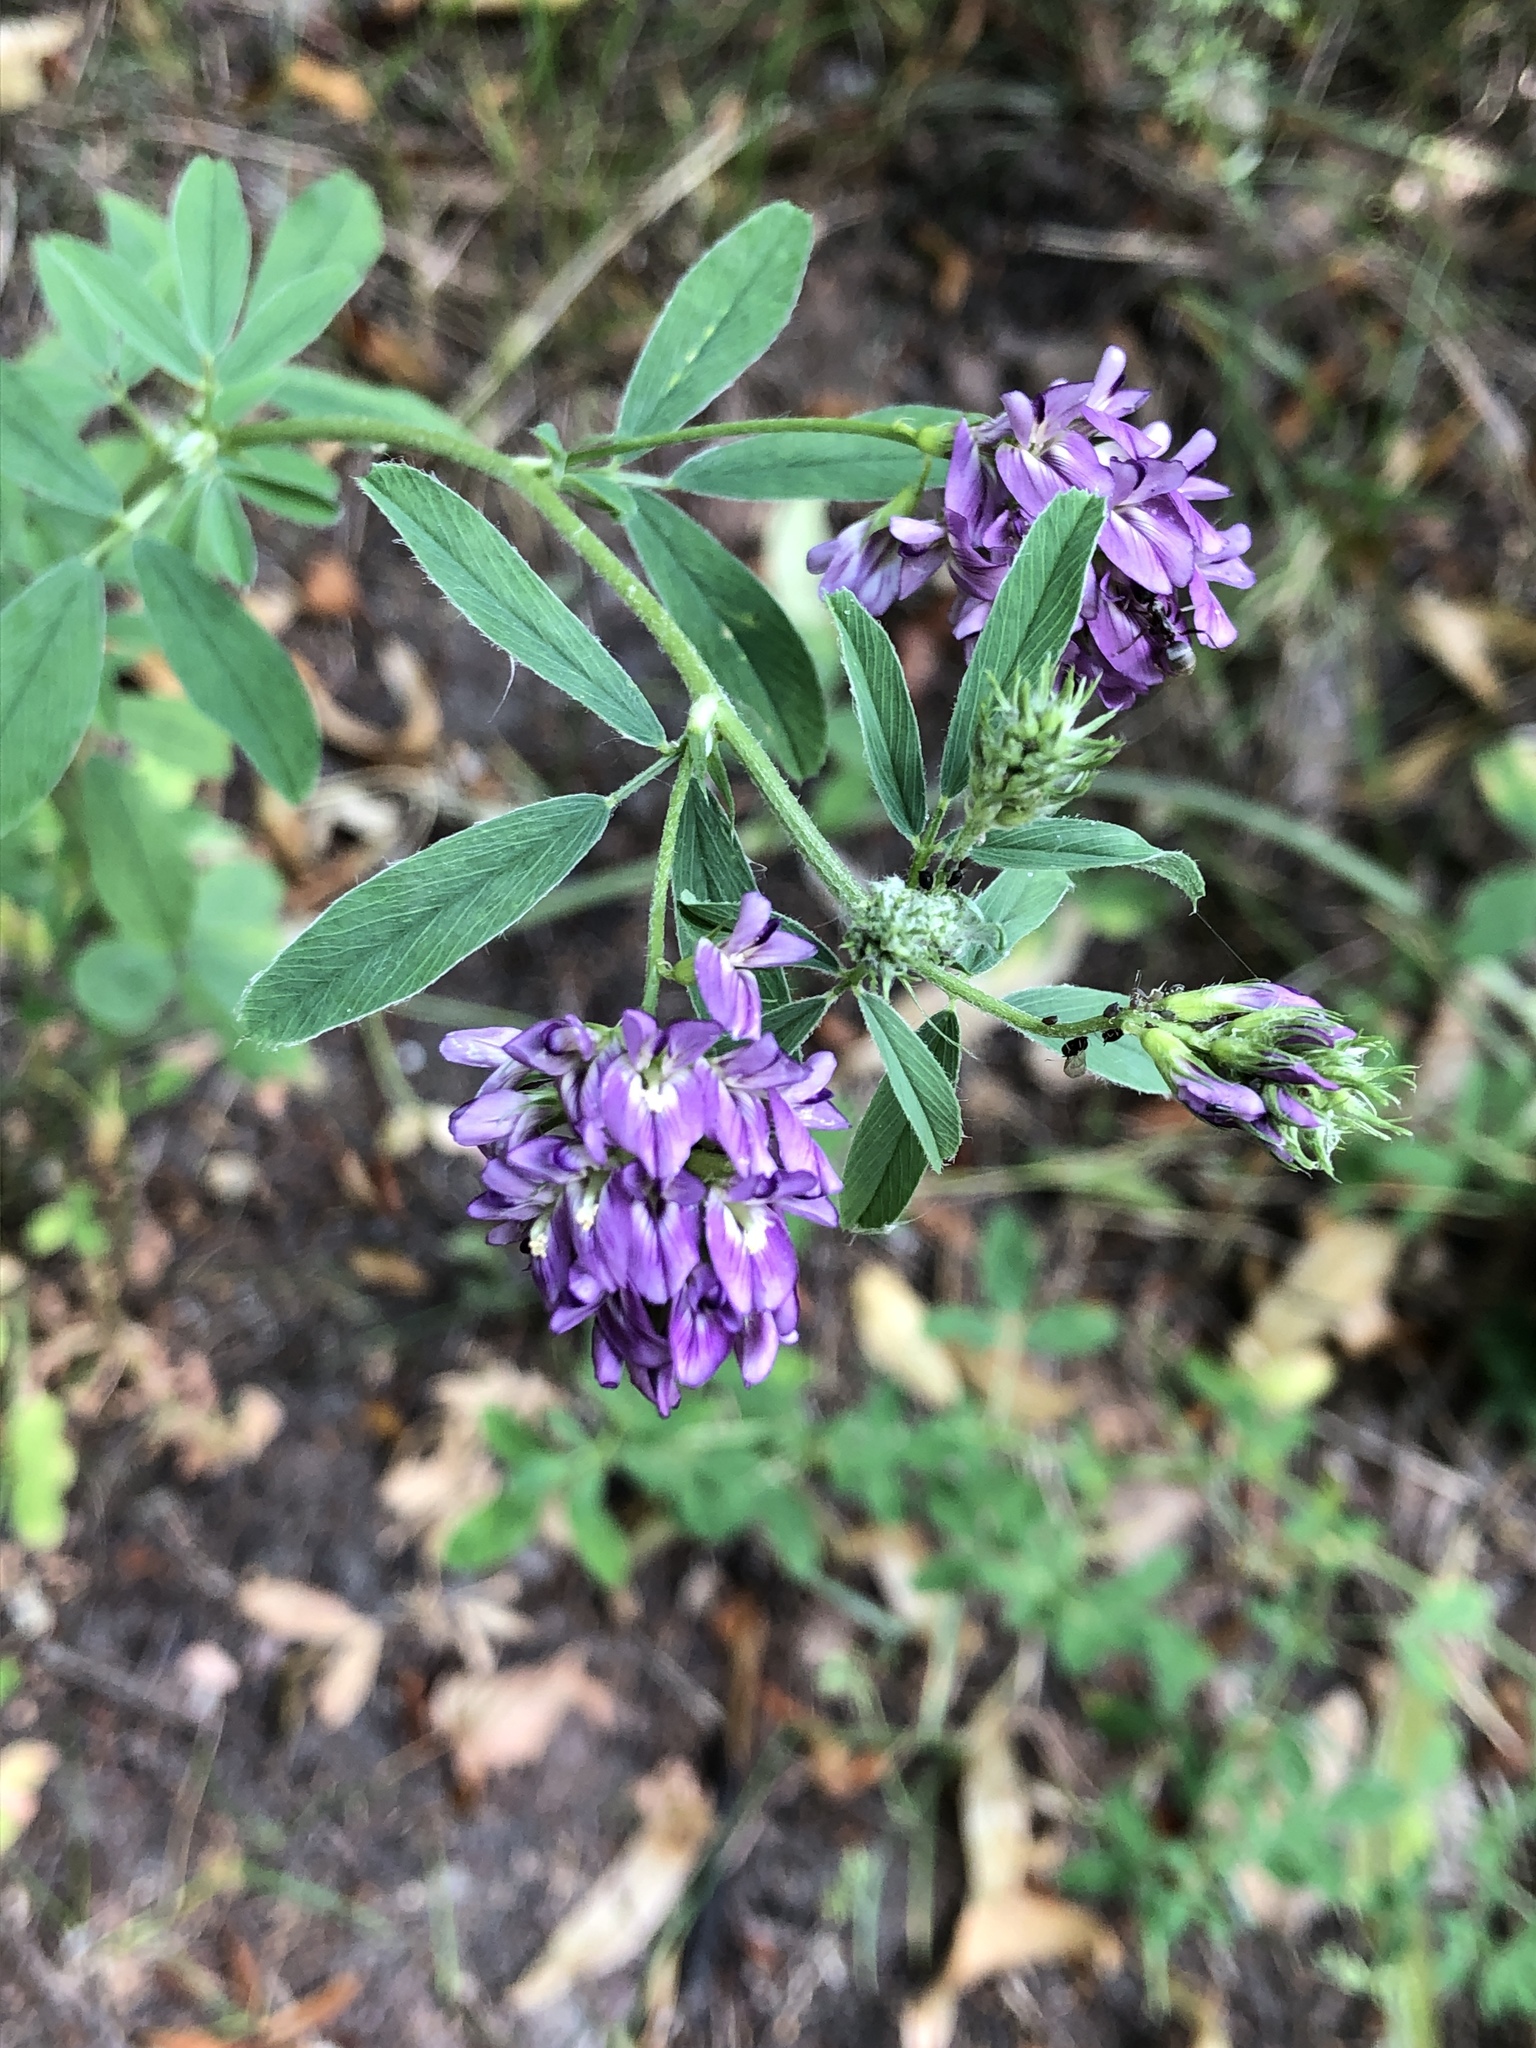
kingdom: Plantae
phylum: Tracheophyta
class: Magnoliopsida
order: Fabales
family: Fabaceae
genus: Medicago
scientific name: Medicago sativa
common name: Alfalfa
